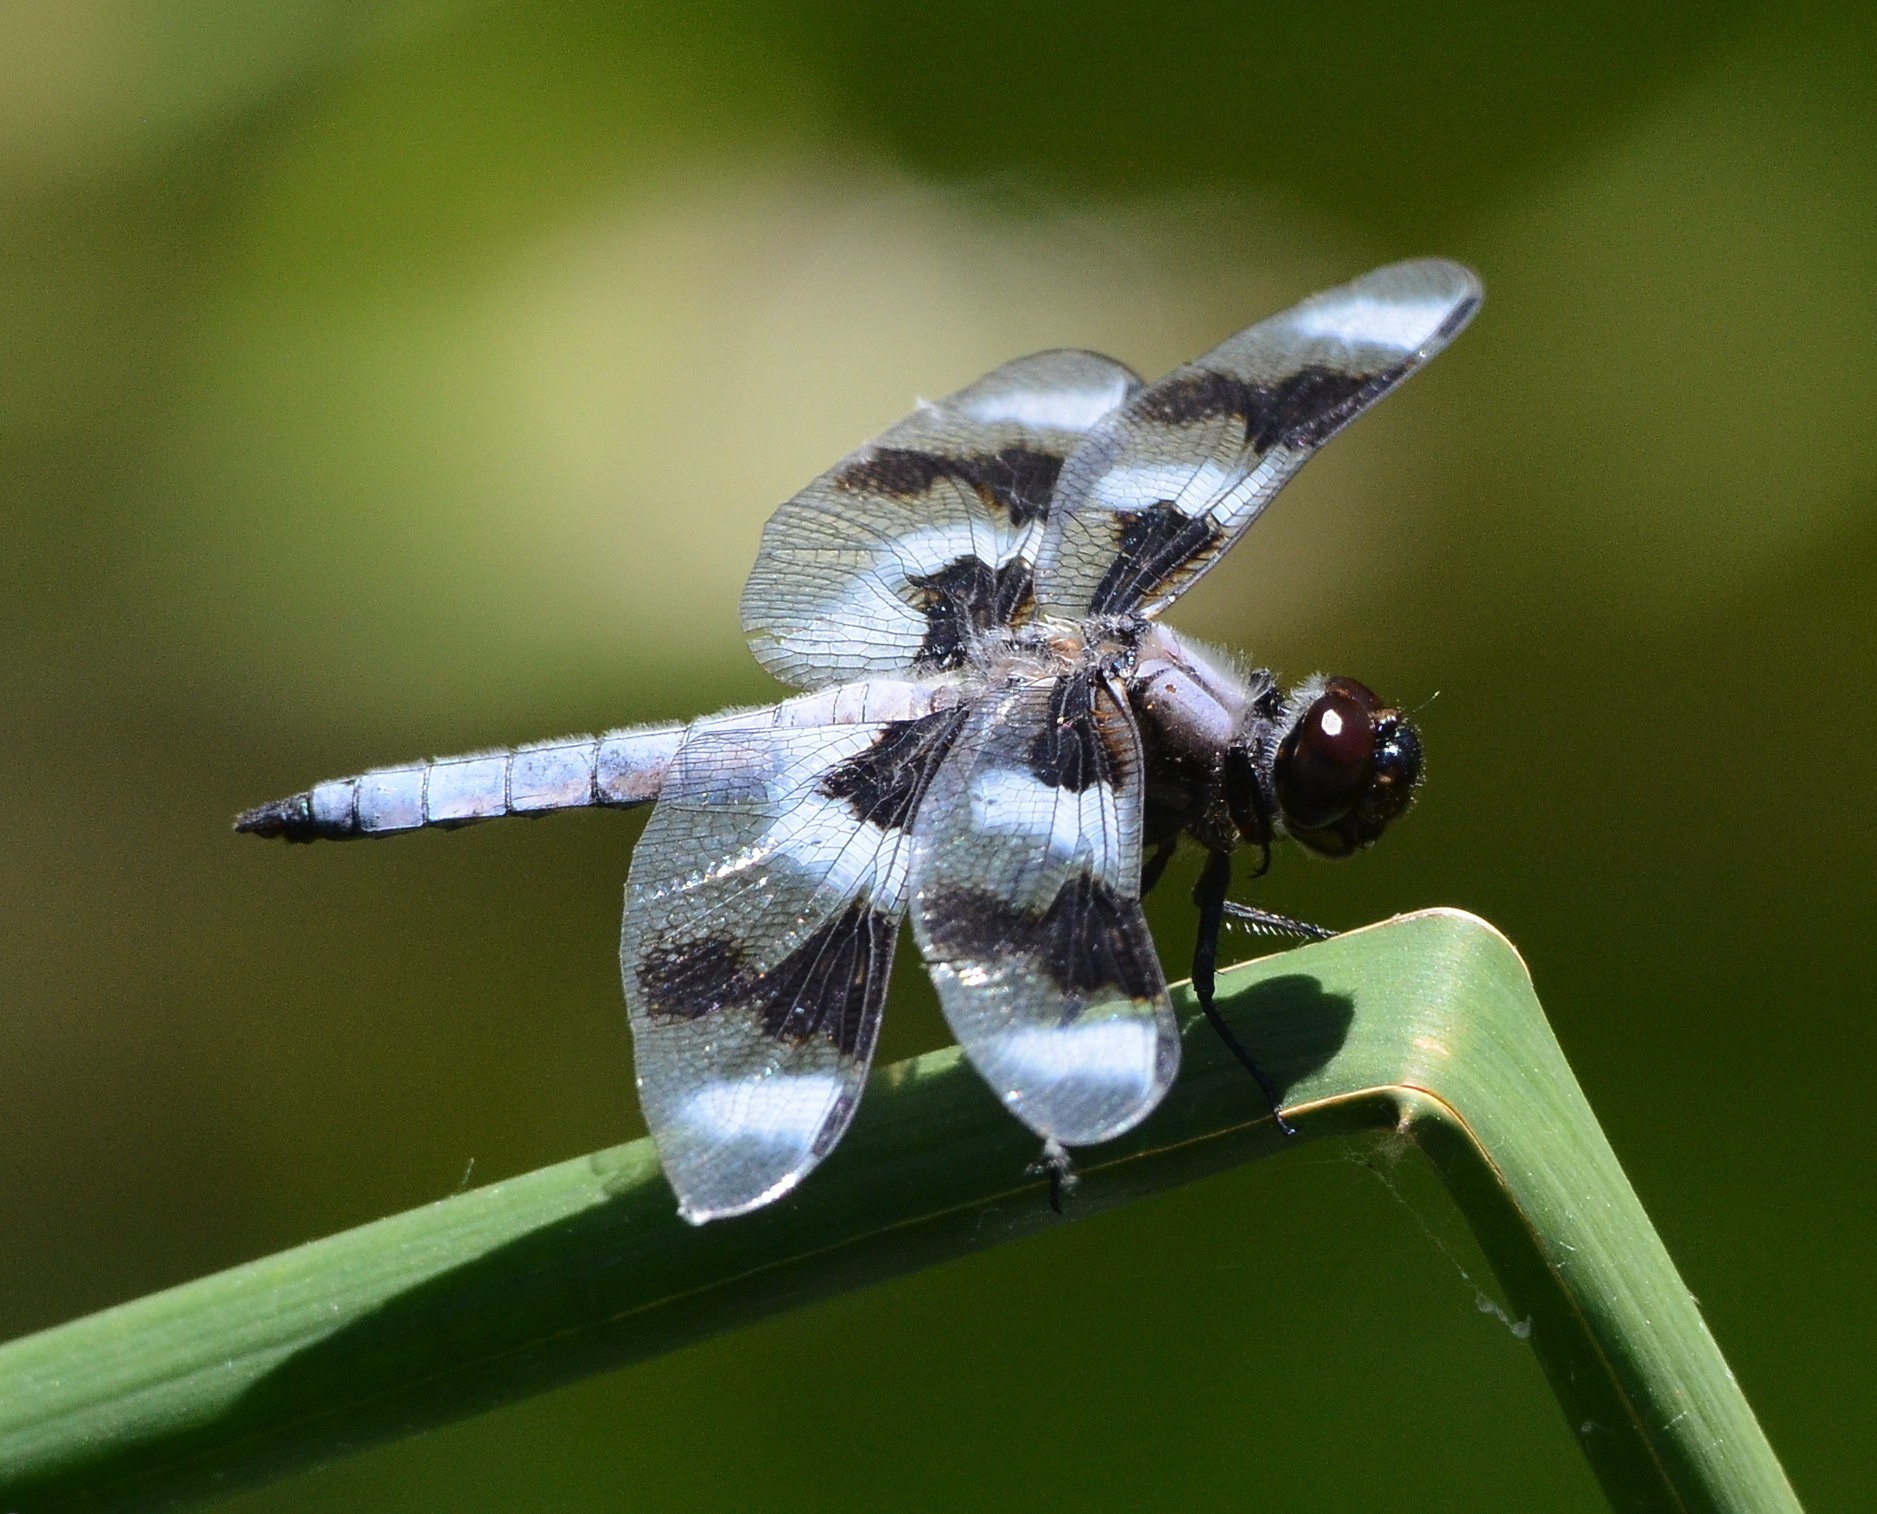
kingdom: Animalia
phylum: Arthropoda
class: Insecta
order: Odonata
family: Libellulidae
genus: Libellula
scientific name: Libellula forensis
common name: Eight-spotted skimmer
